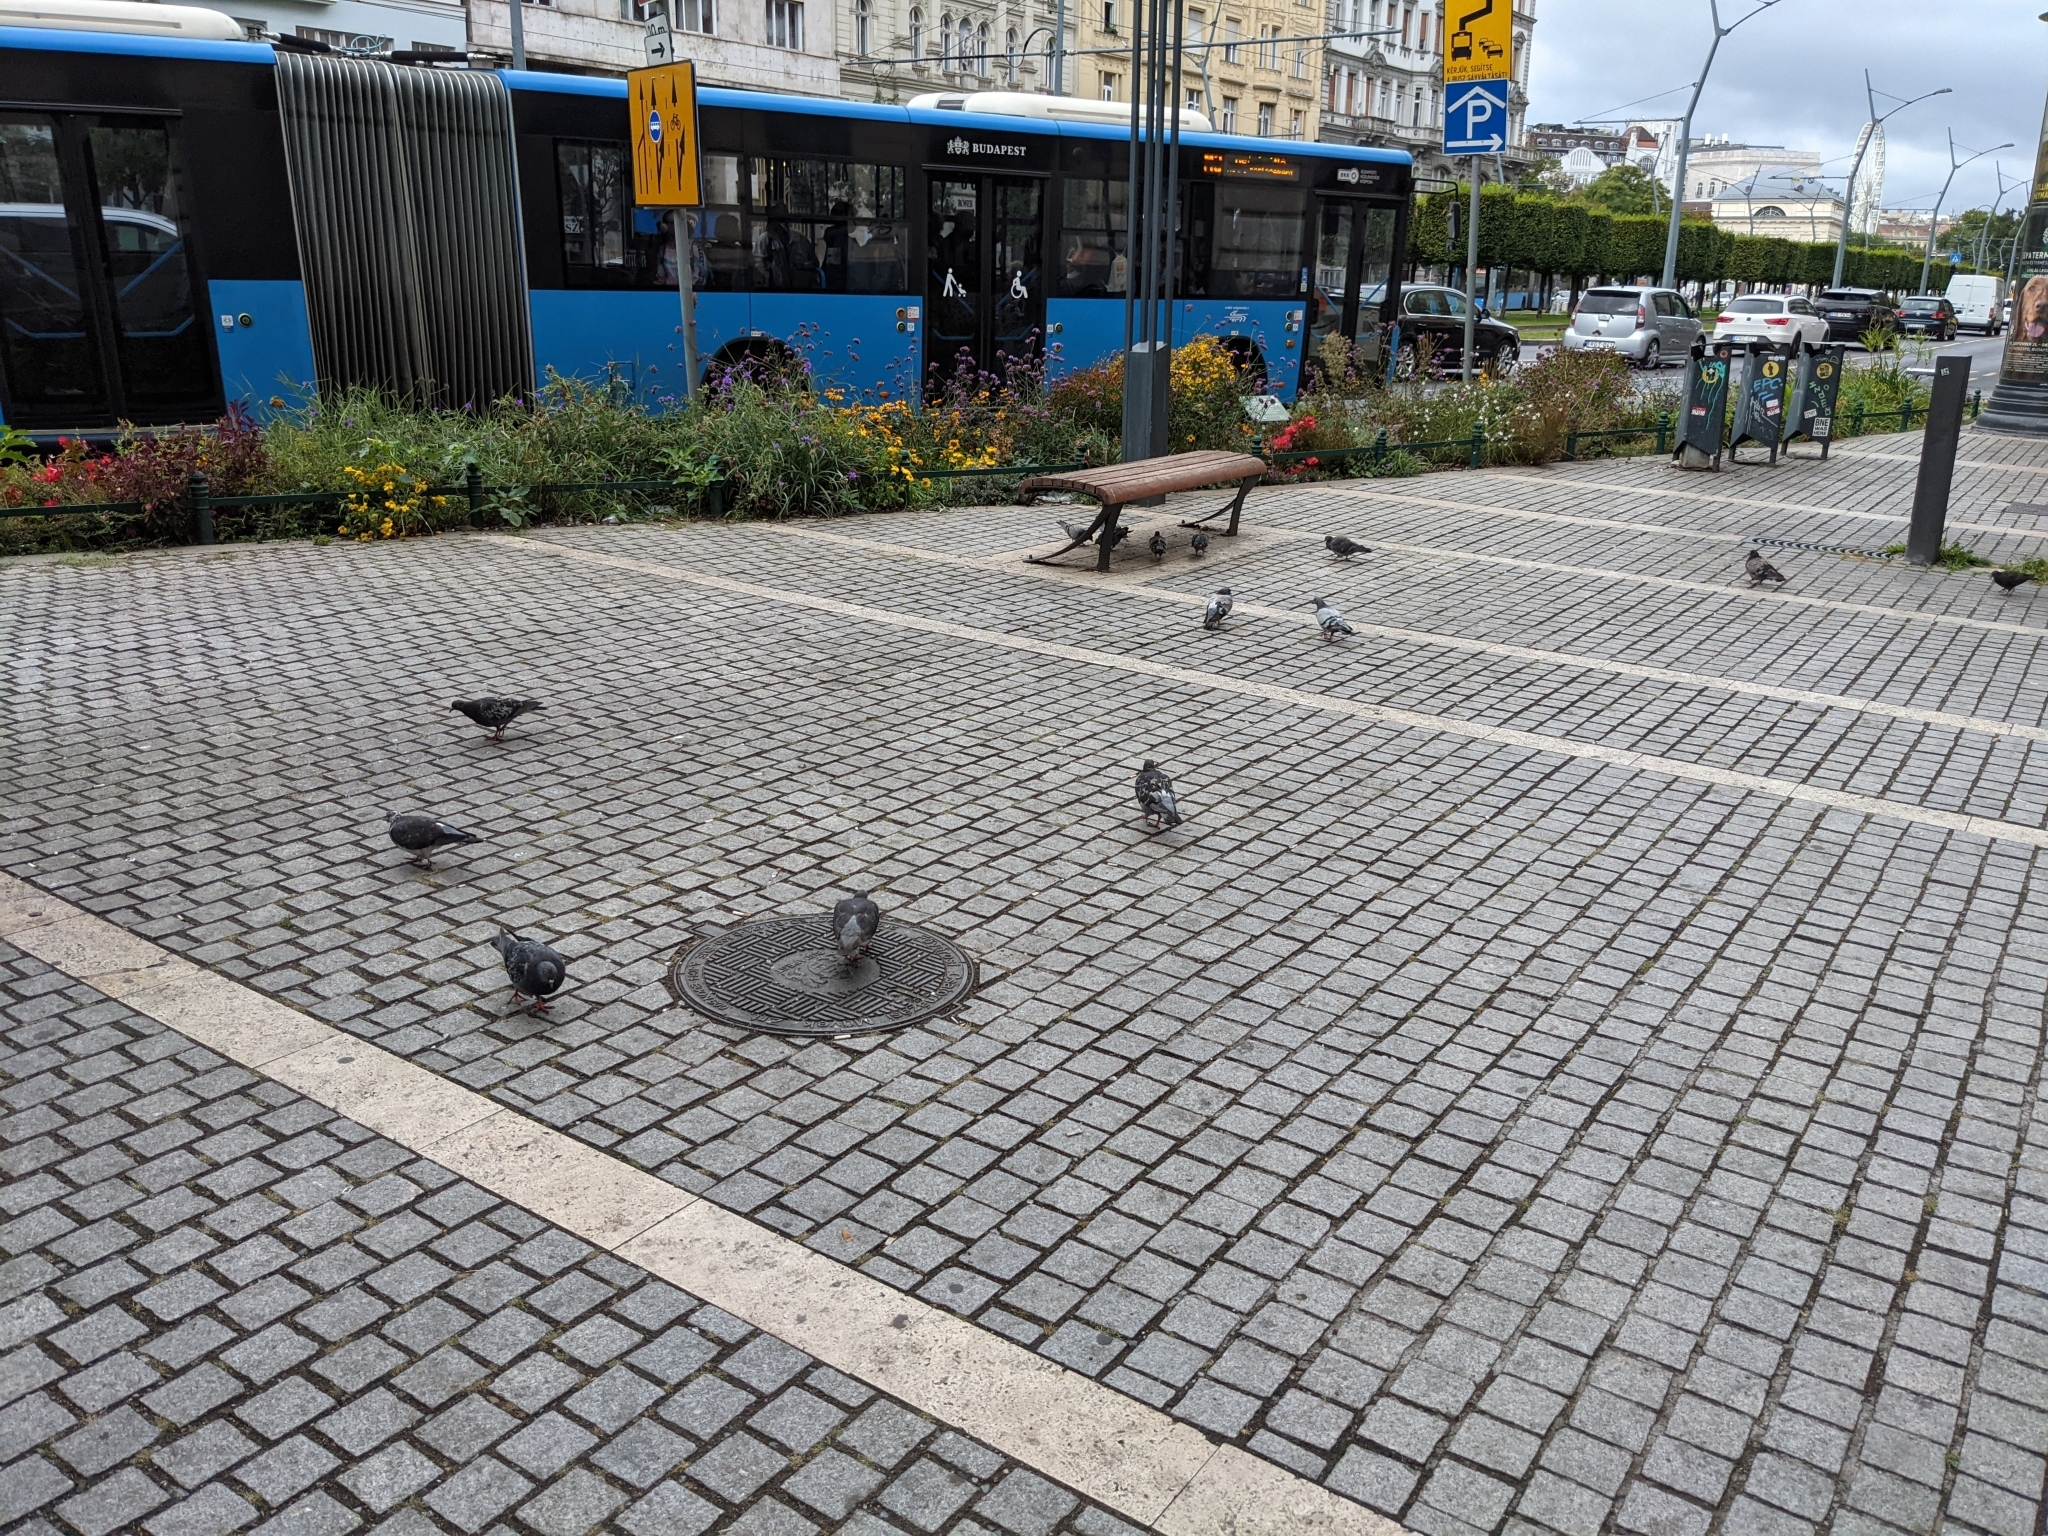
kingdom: Animalia
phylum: Chordata
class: Aves
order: Columbiformes
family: Columbidae
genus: Columba
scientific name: Columba livia
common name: Rock pigeon
